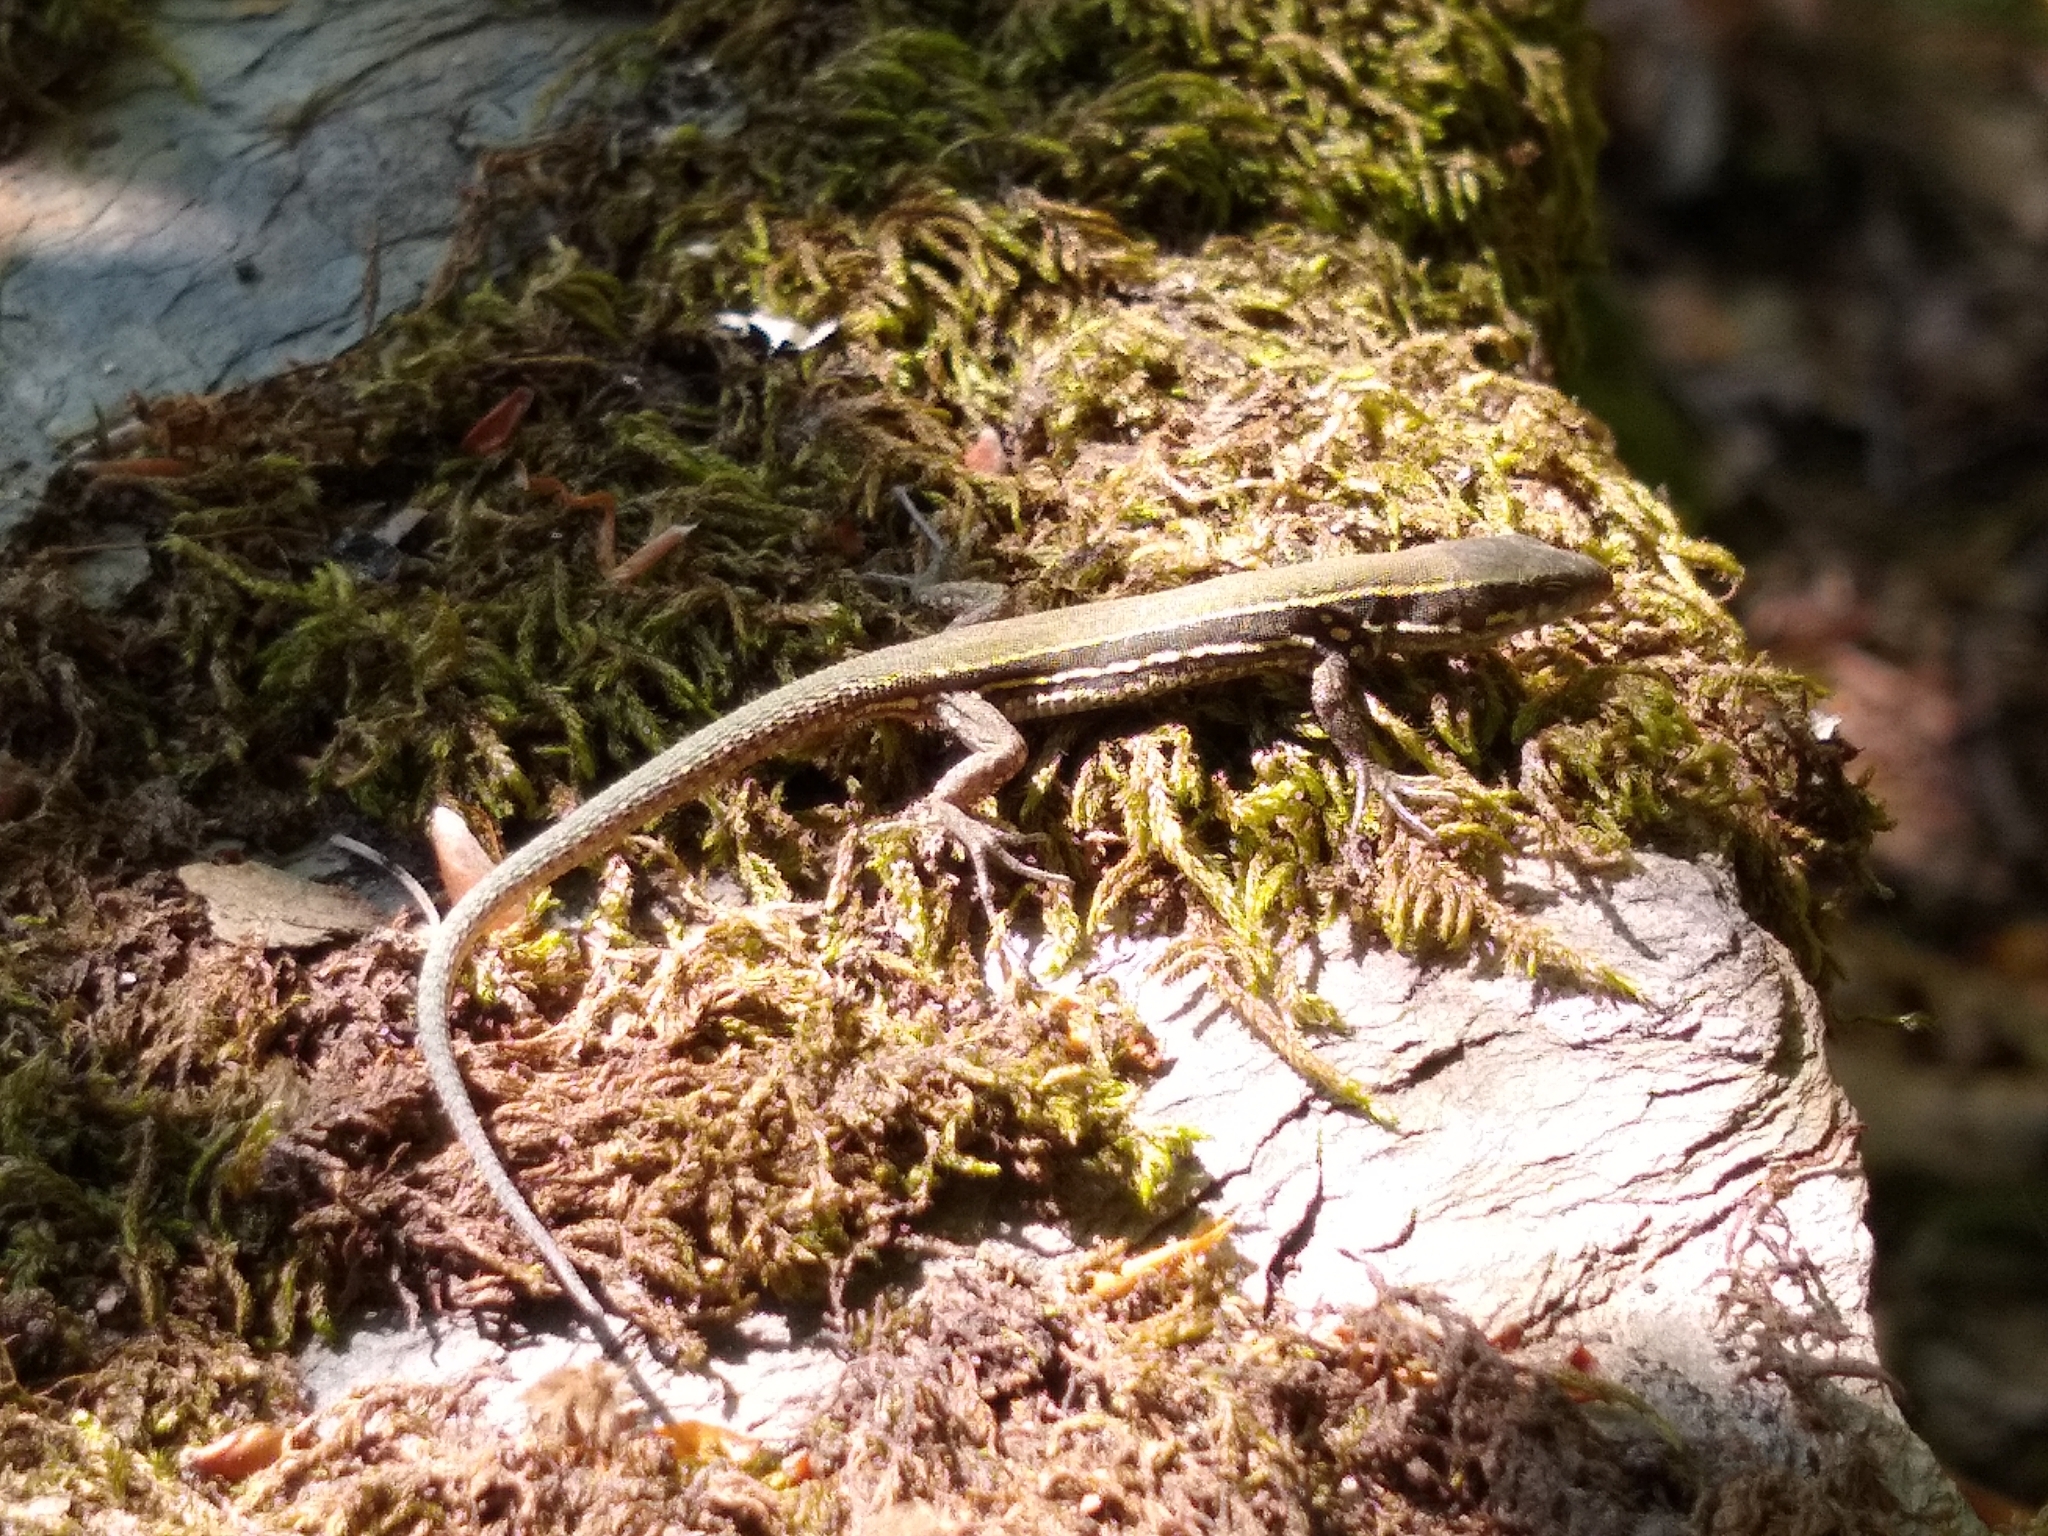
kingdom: Animalia
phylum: Chordata
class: Squamata
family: Lacertidae
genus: Podarcis
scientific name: Podarcis muralis
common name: Common wall lizard
